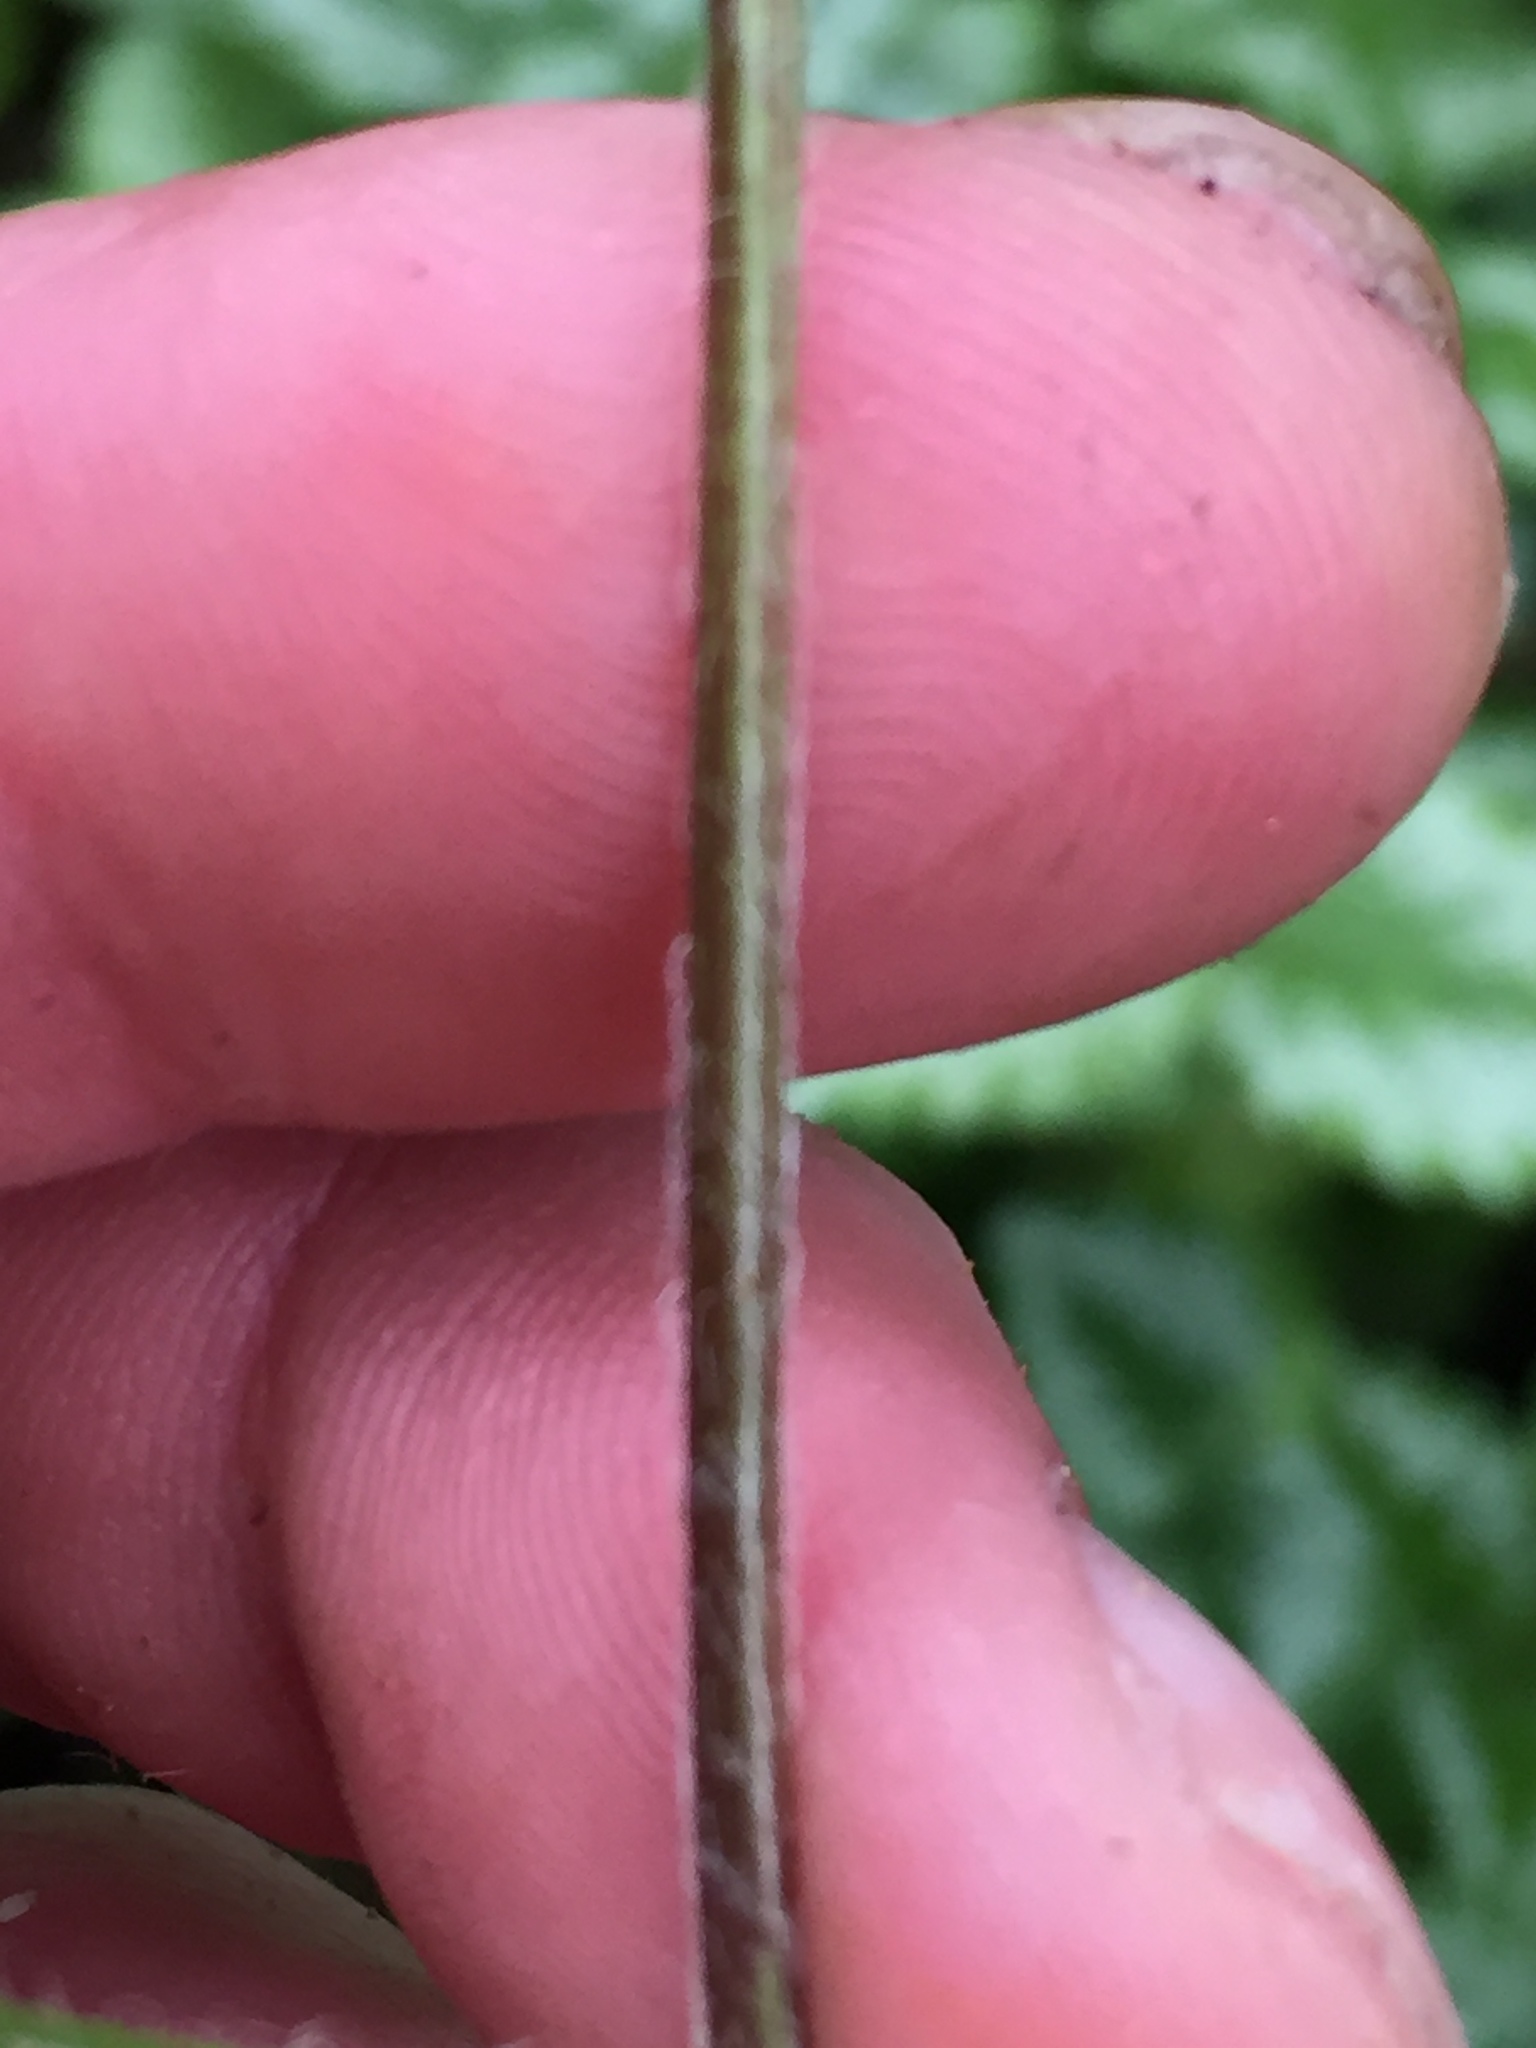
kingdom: Plantae
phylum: Tracheophyta
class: Magnoliopsida
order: Lamiales
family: Lamiaceae
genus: Lamium
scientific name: Lamium galeobdolon
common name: Yellow archangel
